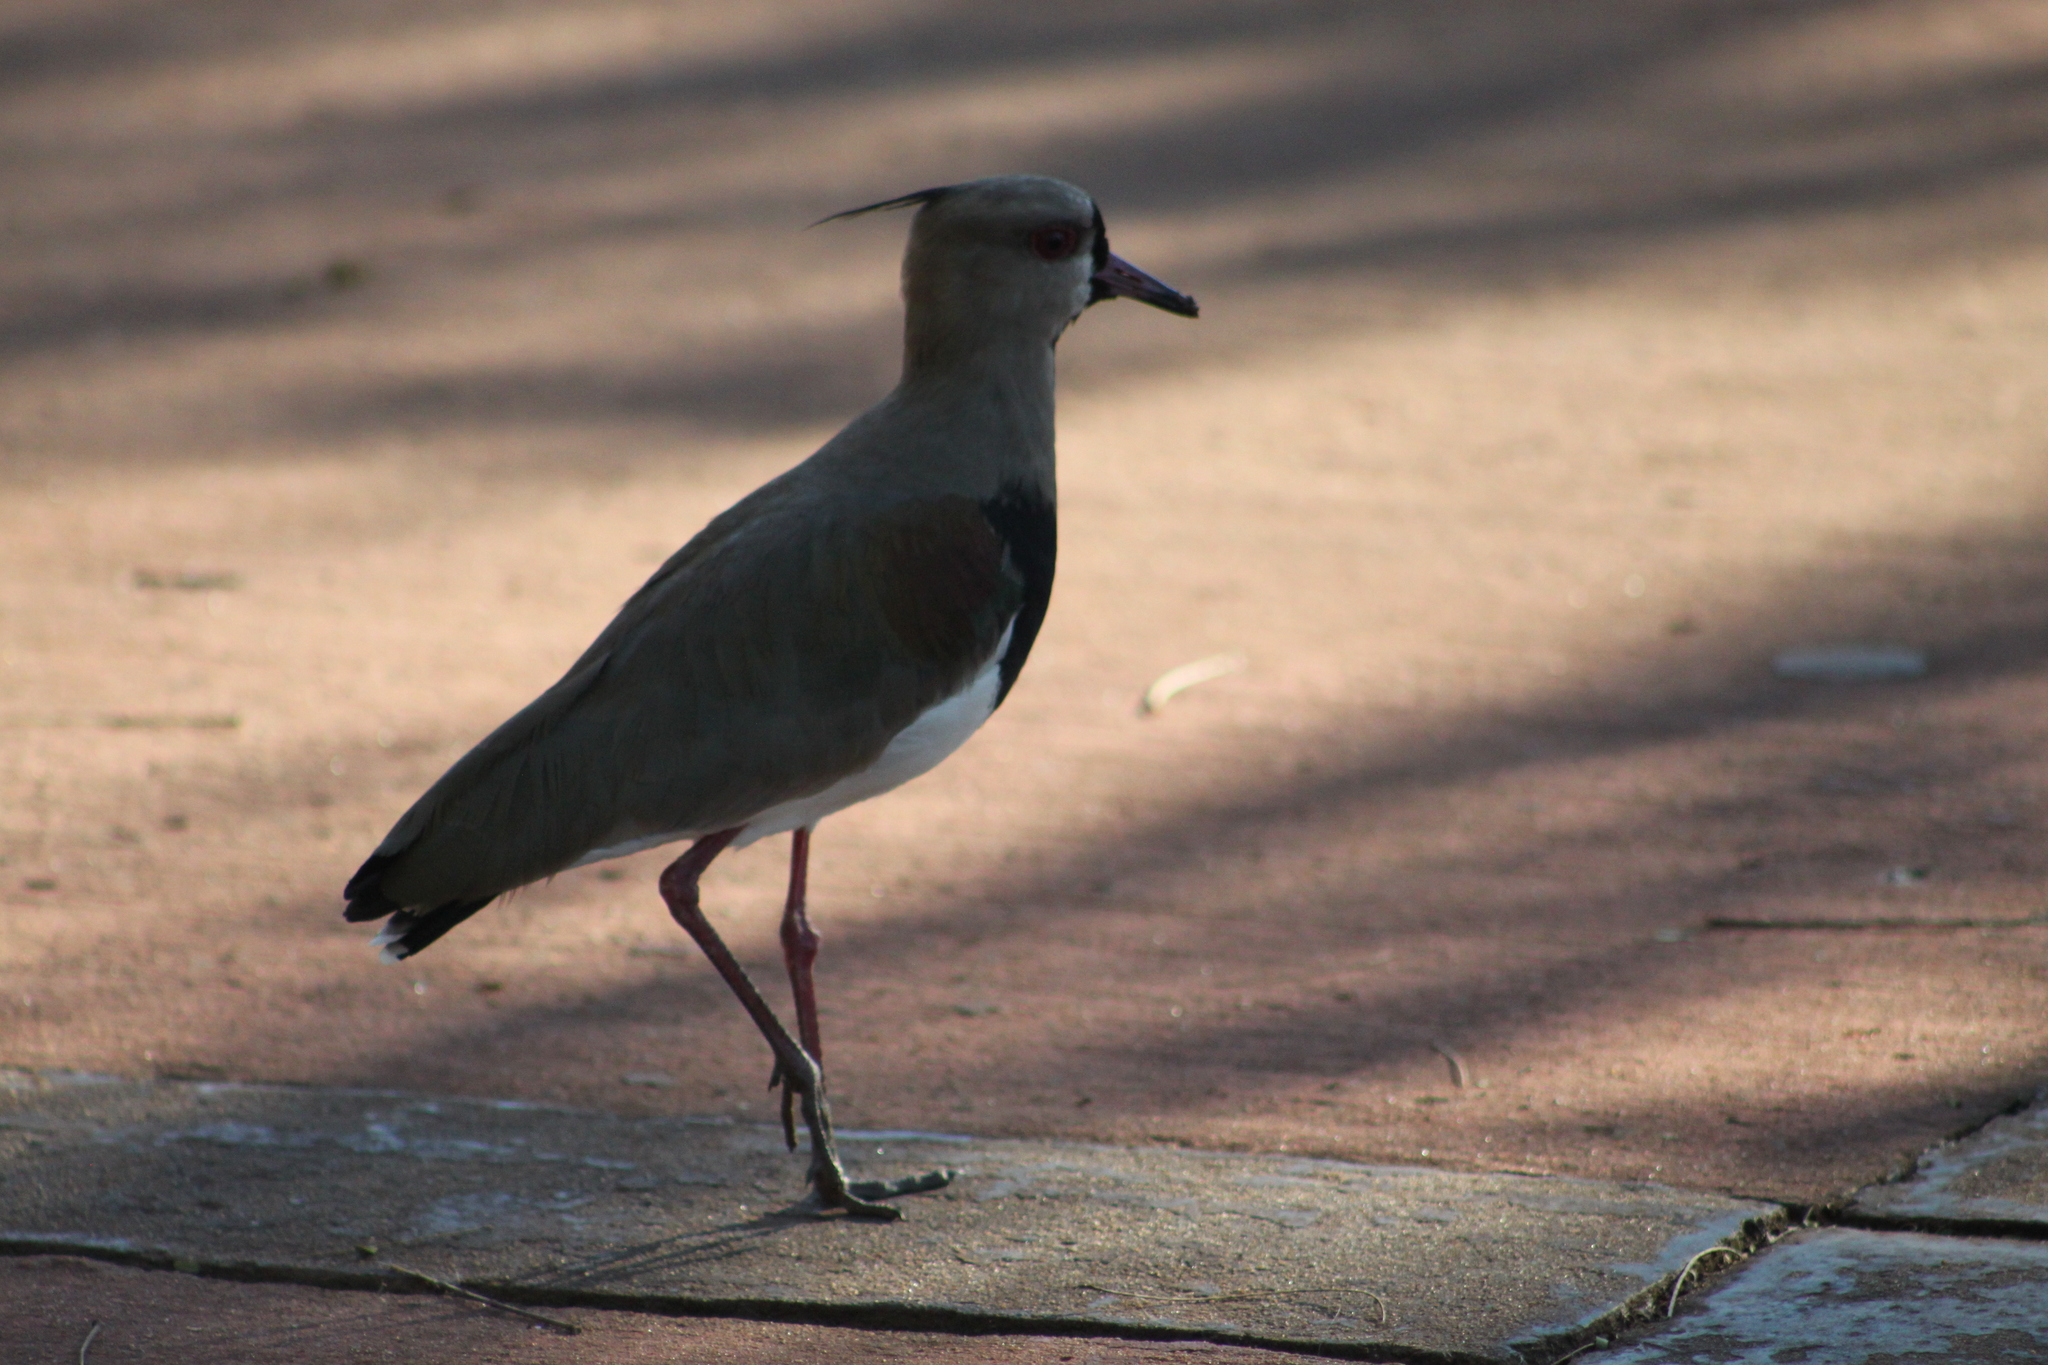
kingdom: Animalia
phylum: Chordata
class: Aves
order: Charadriiformes
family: Charadriidae
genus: Vanellus
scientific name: Vanellus chilensis
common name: Southern lapwing
